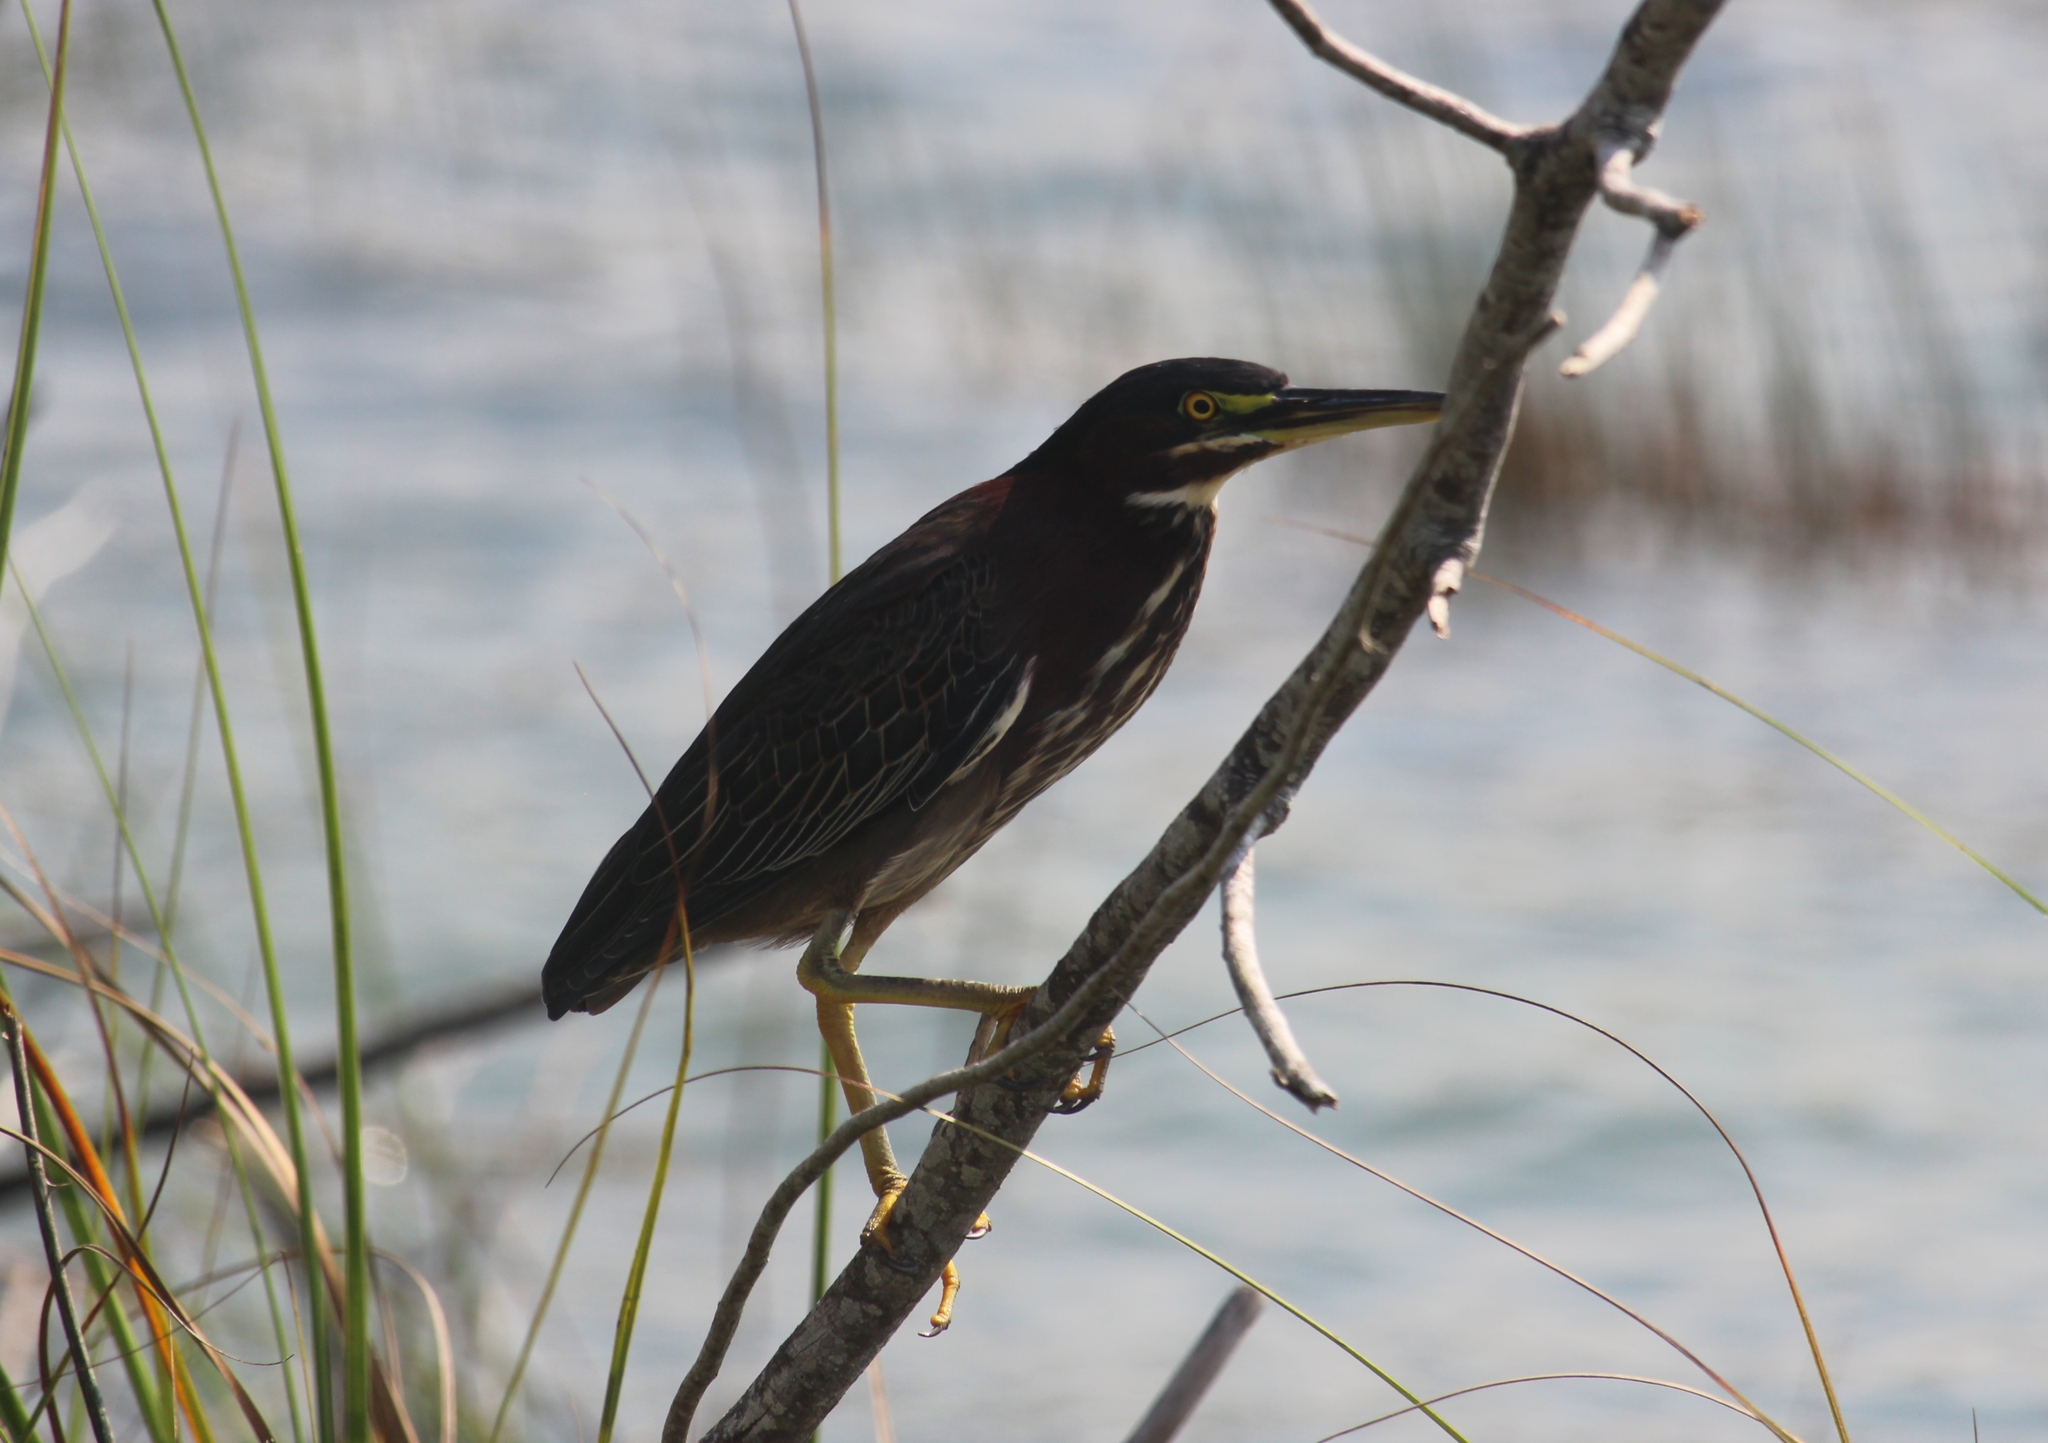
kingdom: Animalia
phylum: Chordata
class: Aves
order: Pelecaniformes
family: Ardeidae
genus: Butorides
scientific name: Butorides virescens
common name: Green heron
